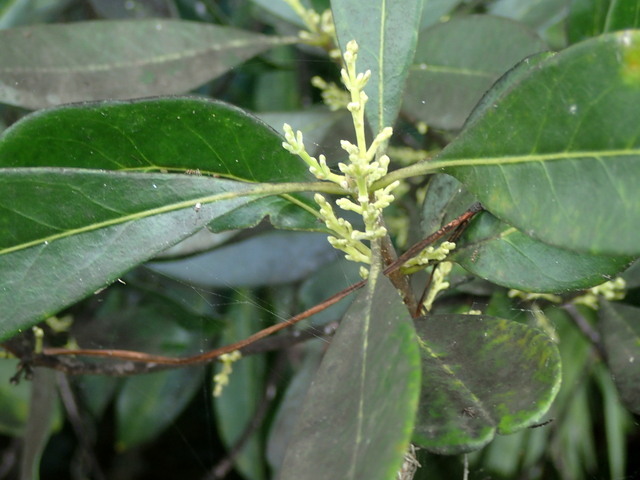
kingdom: Plantae
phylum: Tracheophyta
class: Magnoliopsida
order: Lamiales
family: Oleaceae
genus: Cartrema
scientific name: Cartrema americana
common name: Devilwood
